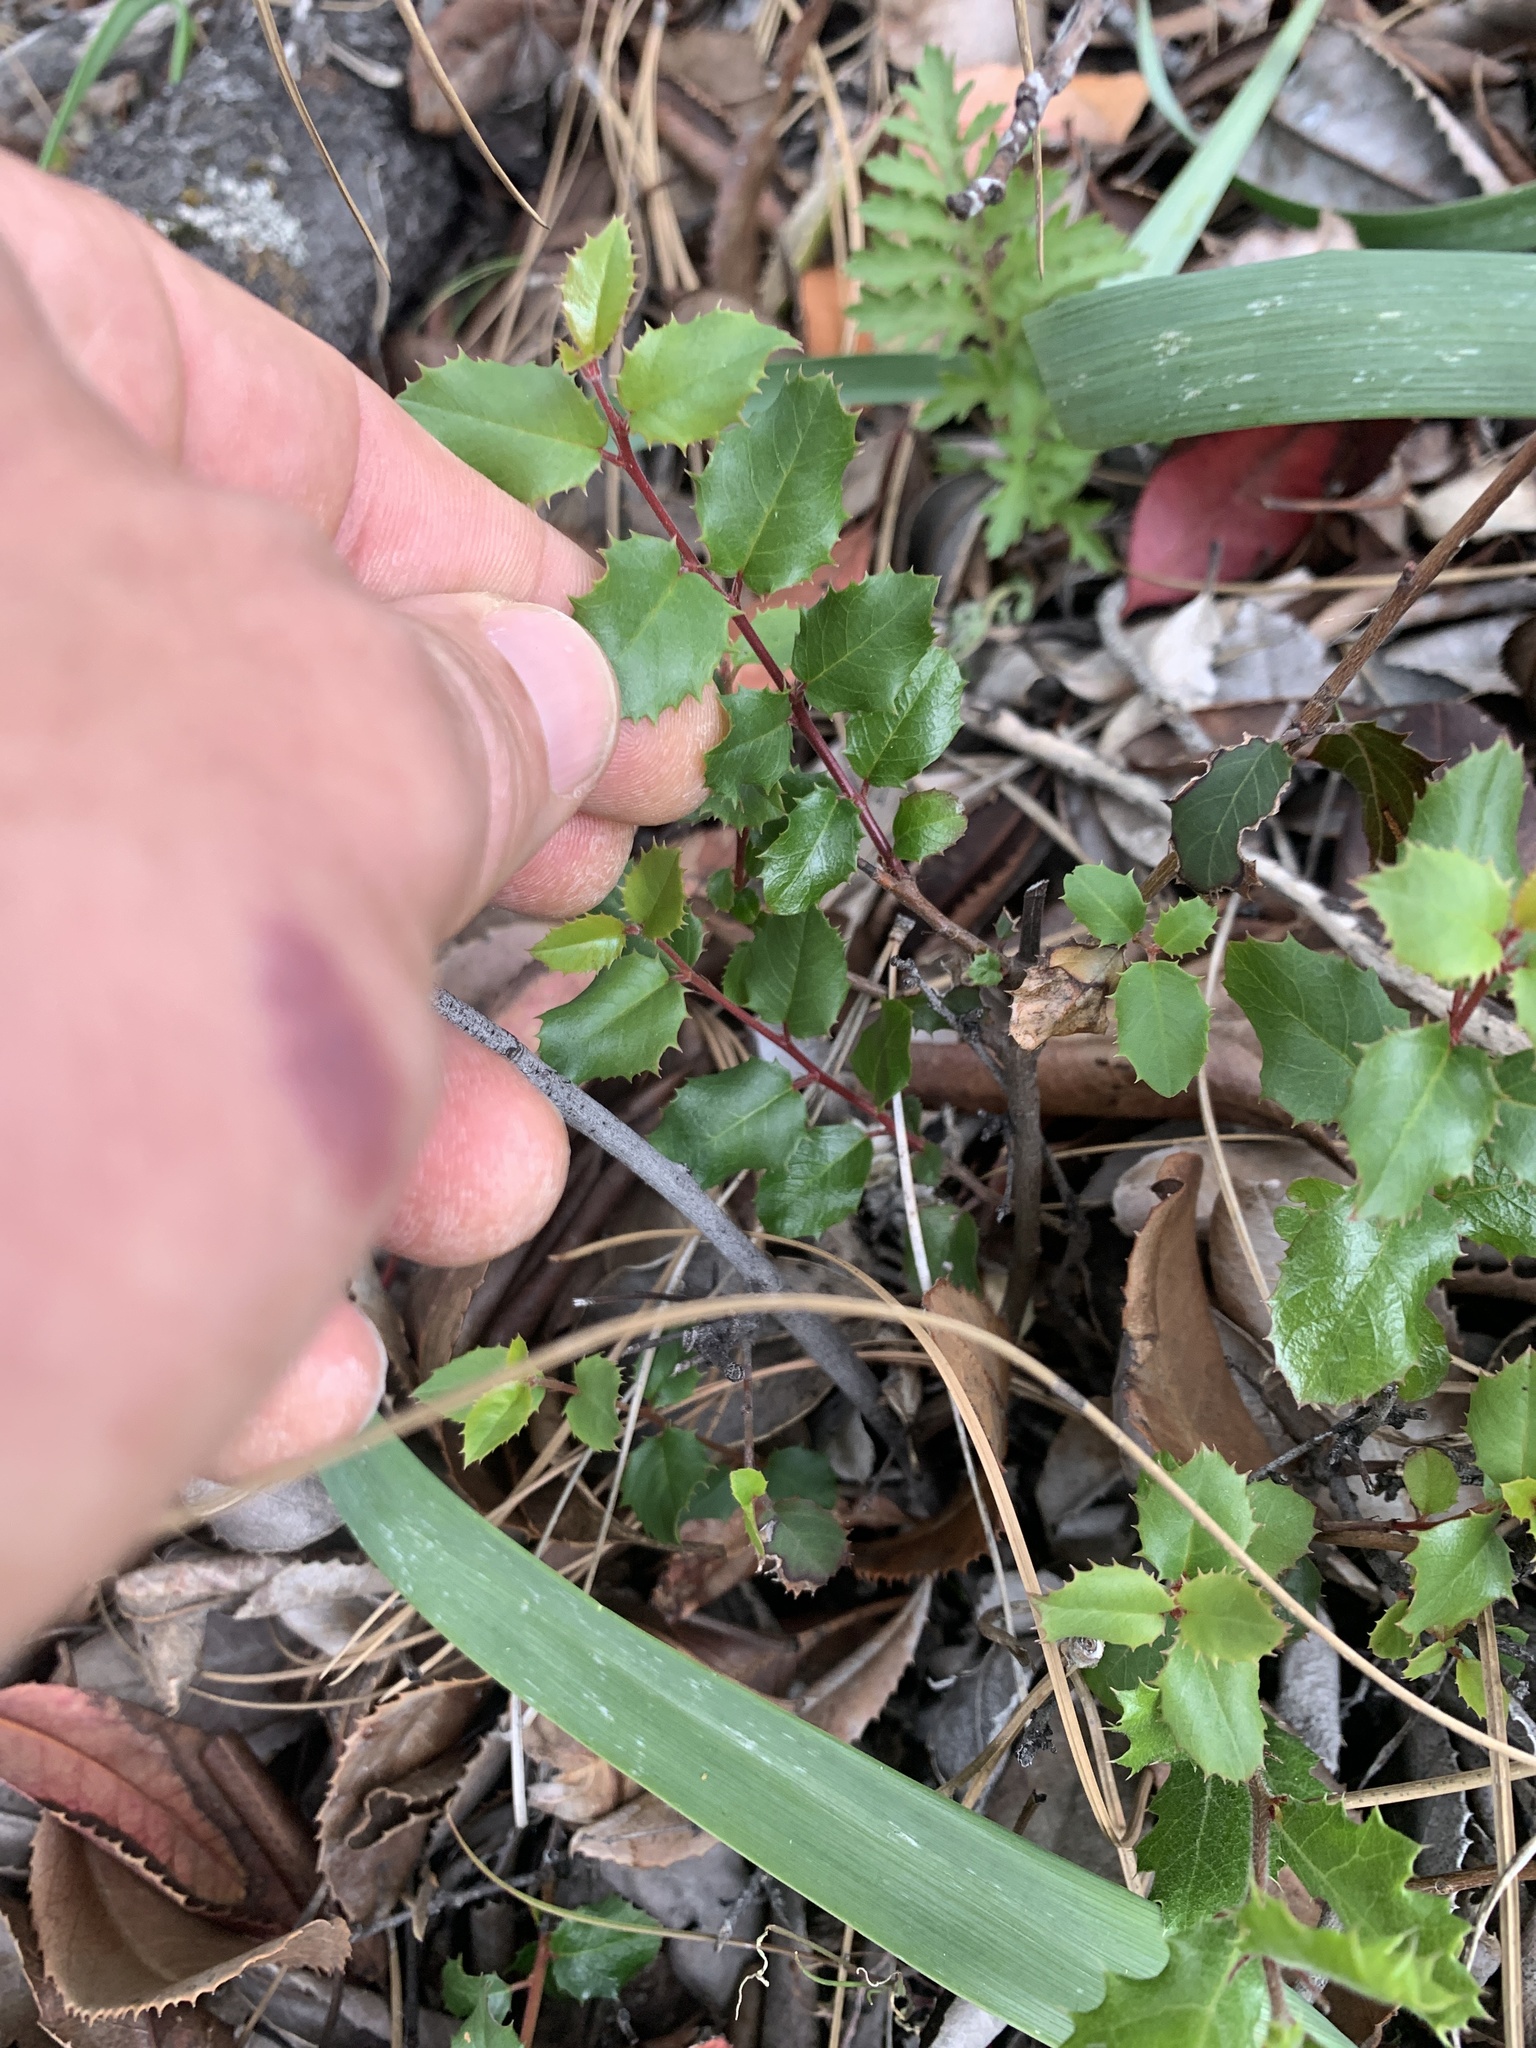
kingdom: Plantae
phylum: Tracheophyta
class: Magnoliopsida
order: Rosales
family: Rhamnaceae
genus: Endotropis
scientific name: Endotropis crocea
